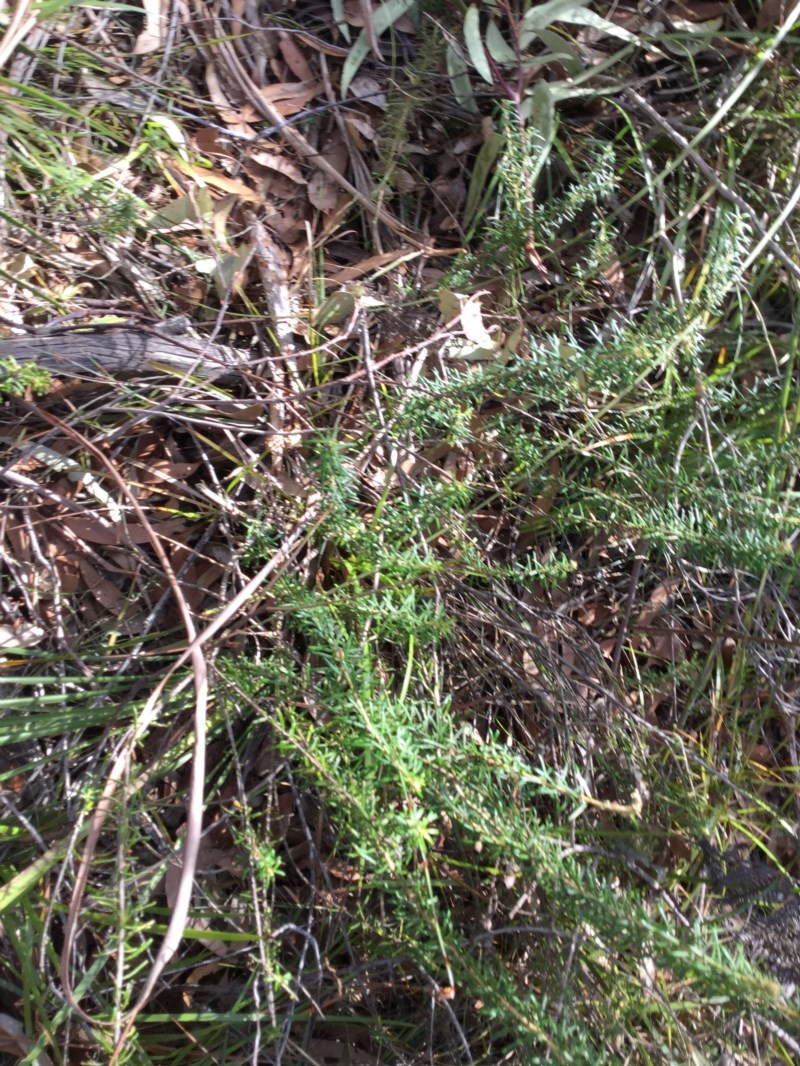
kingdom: Plantae
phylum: Tracheophyta
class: Magnoliopsida
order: Apiales
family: Araliaceae
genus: Astrotricha
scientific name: Astrotricha
